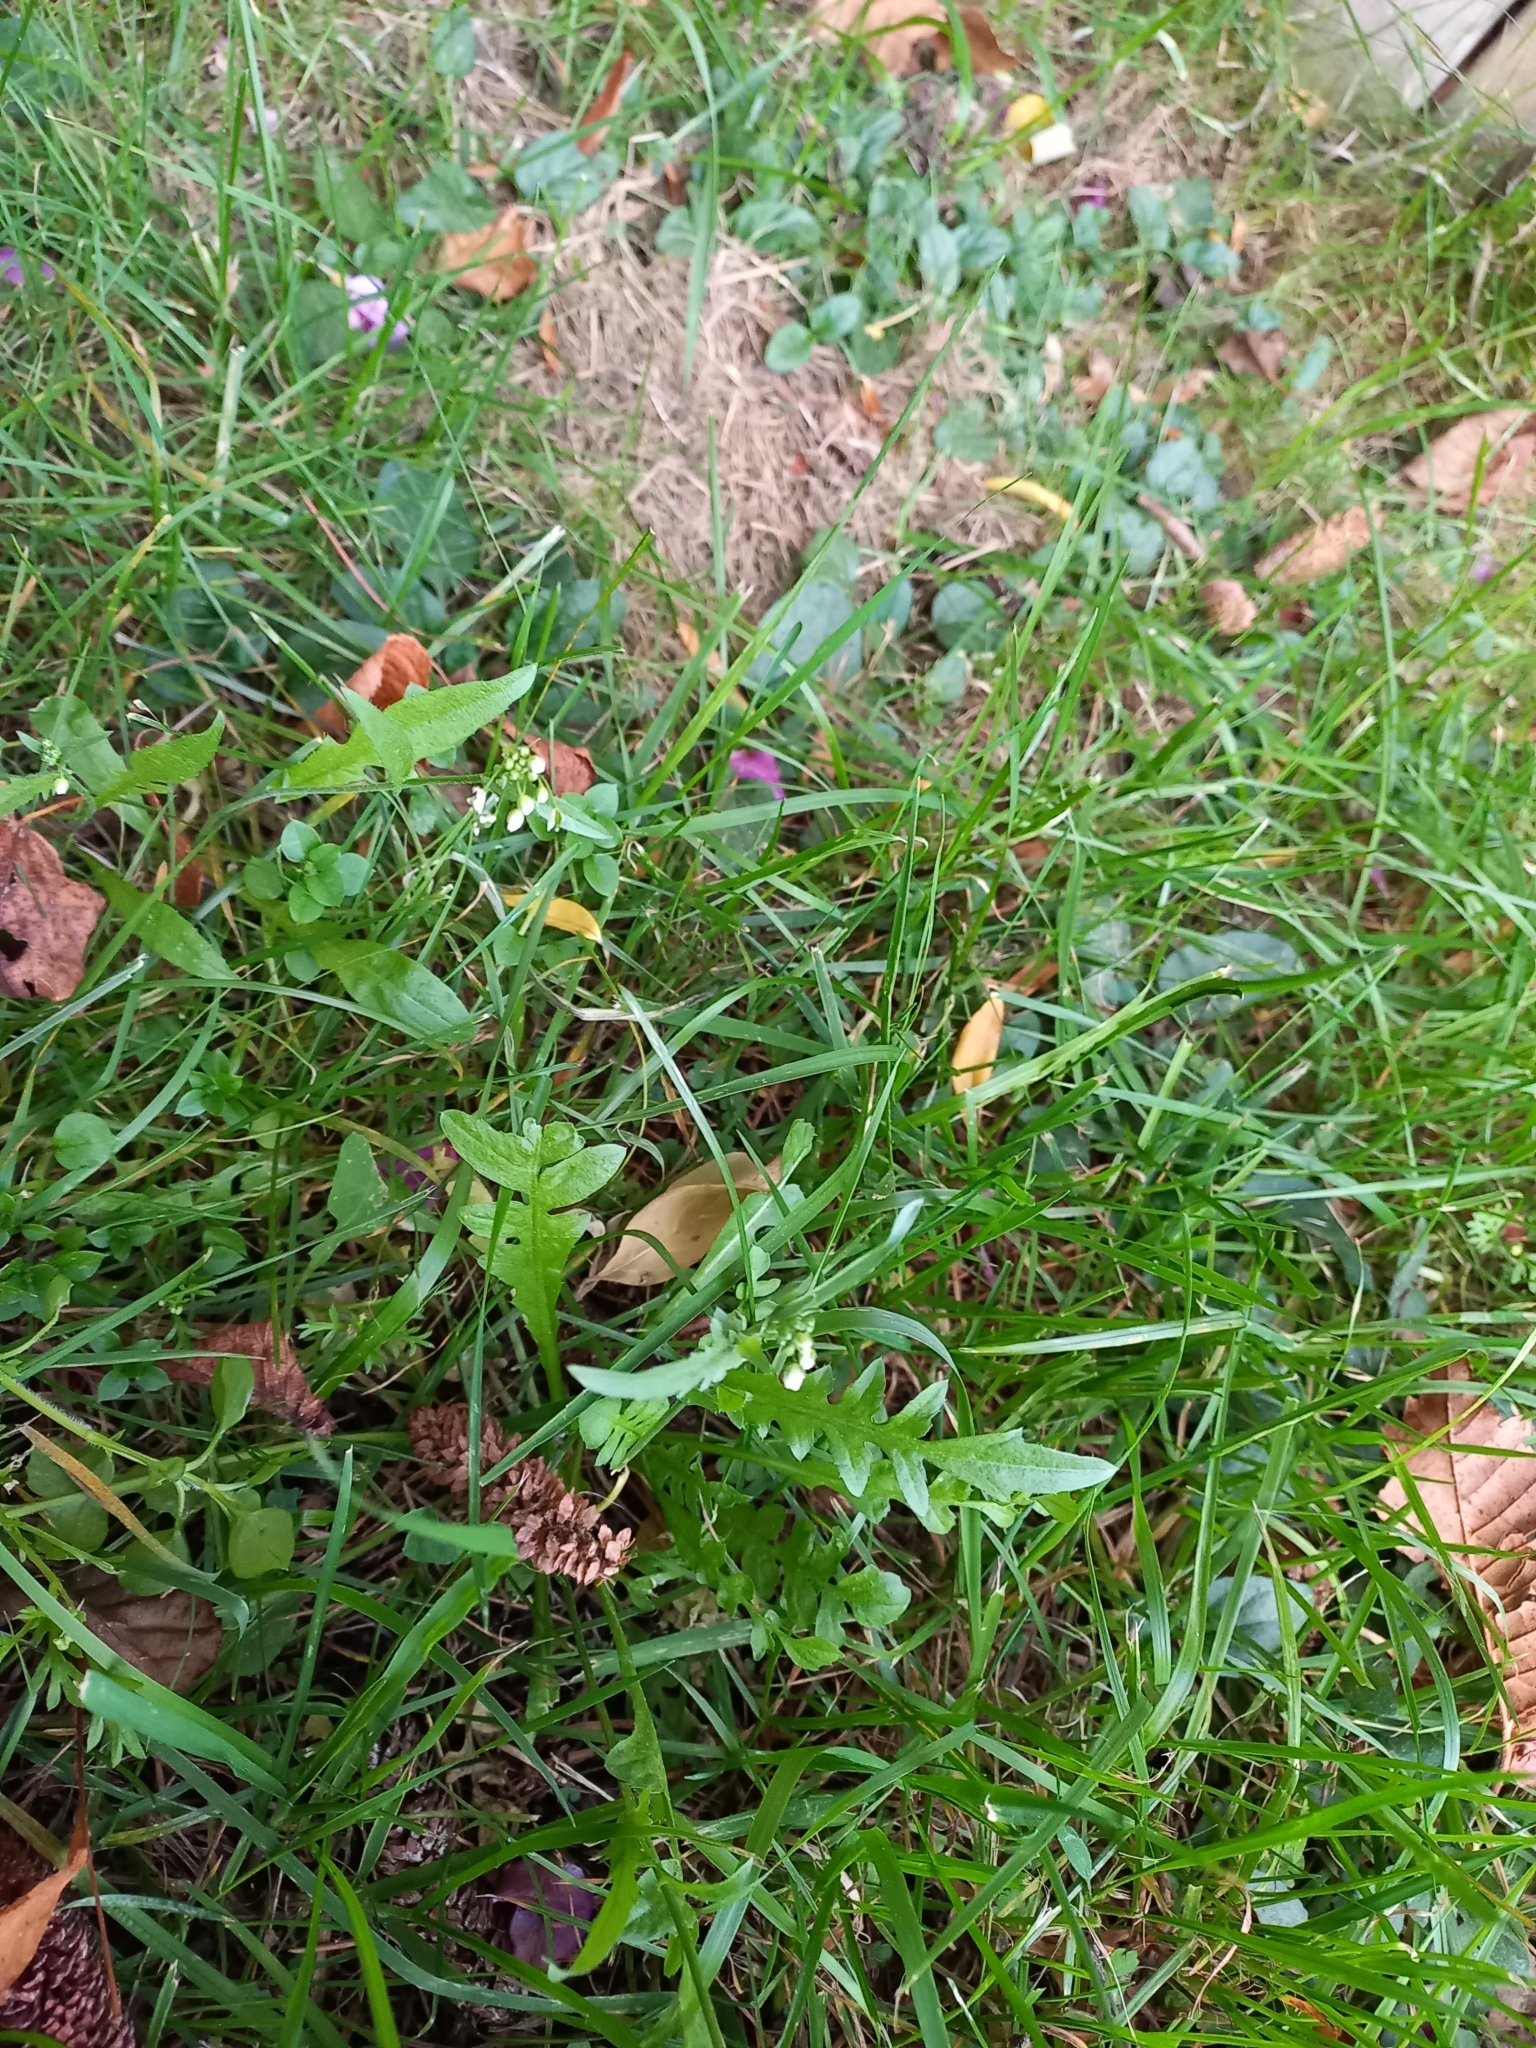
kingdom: Plantae
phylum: Tracheophyta
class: Magnoliopsida
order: Brassicales
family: Brassicaceae
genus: Capsella
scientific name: Capsella bursa-pastoris
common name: Shepherd's purse
